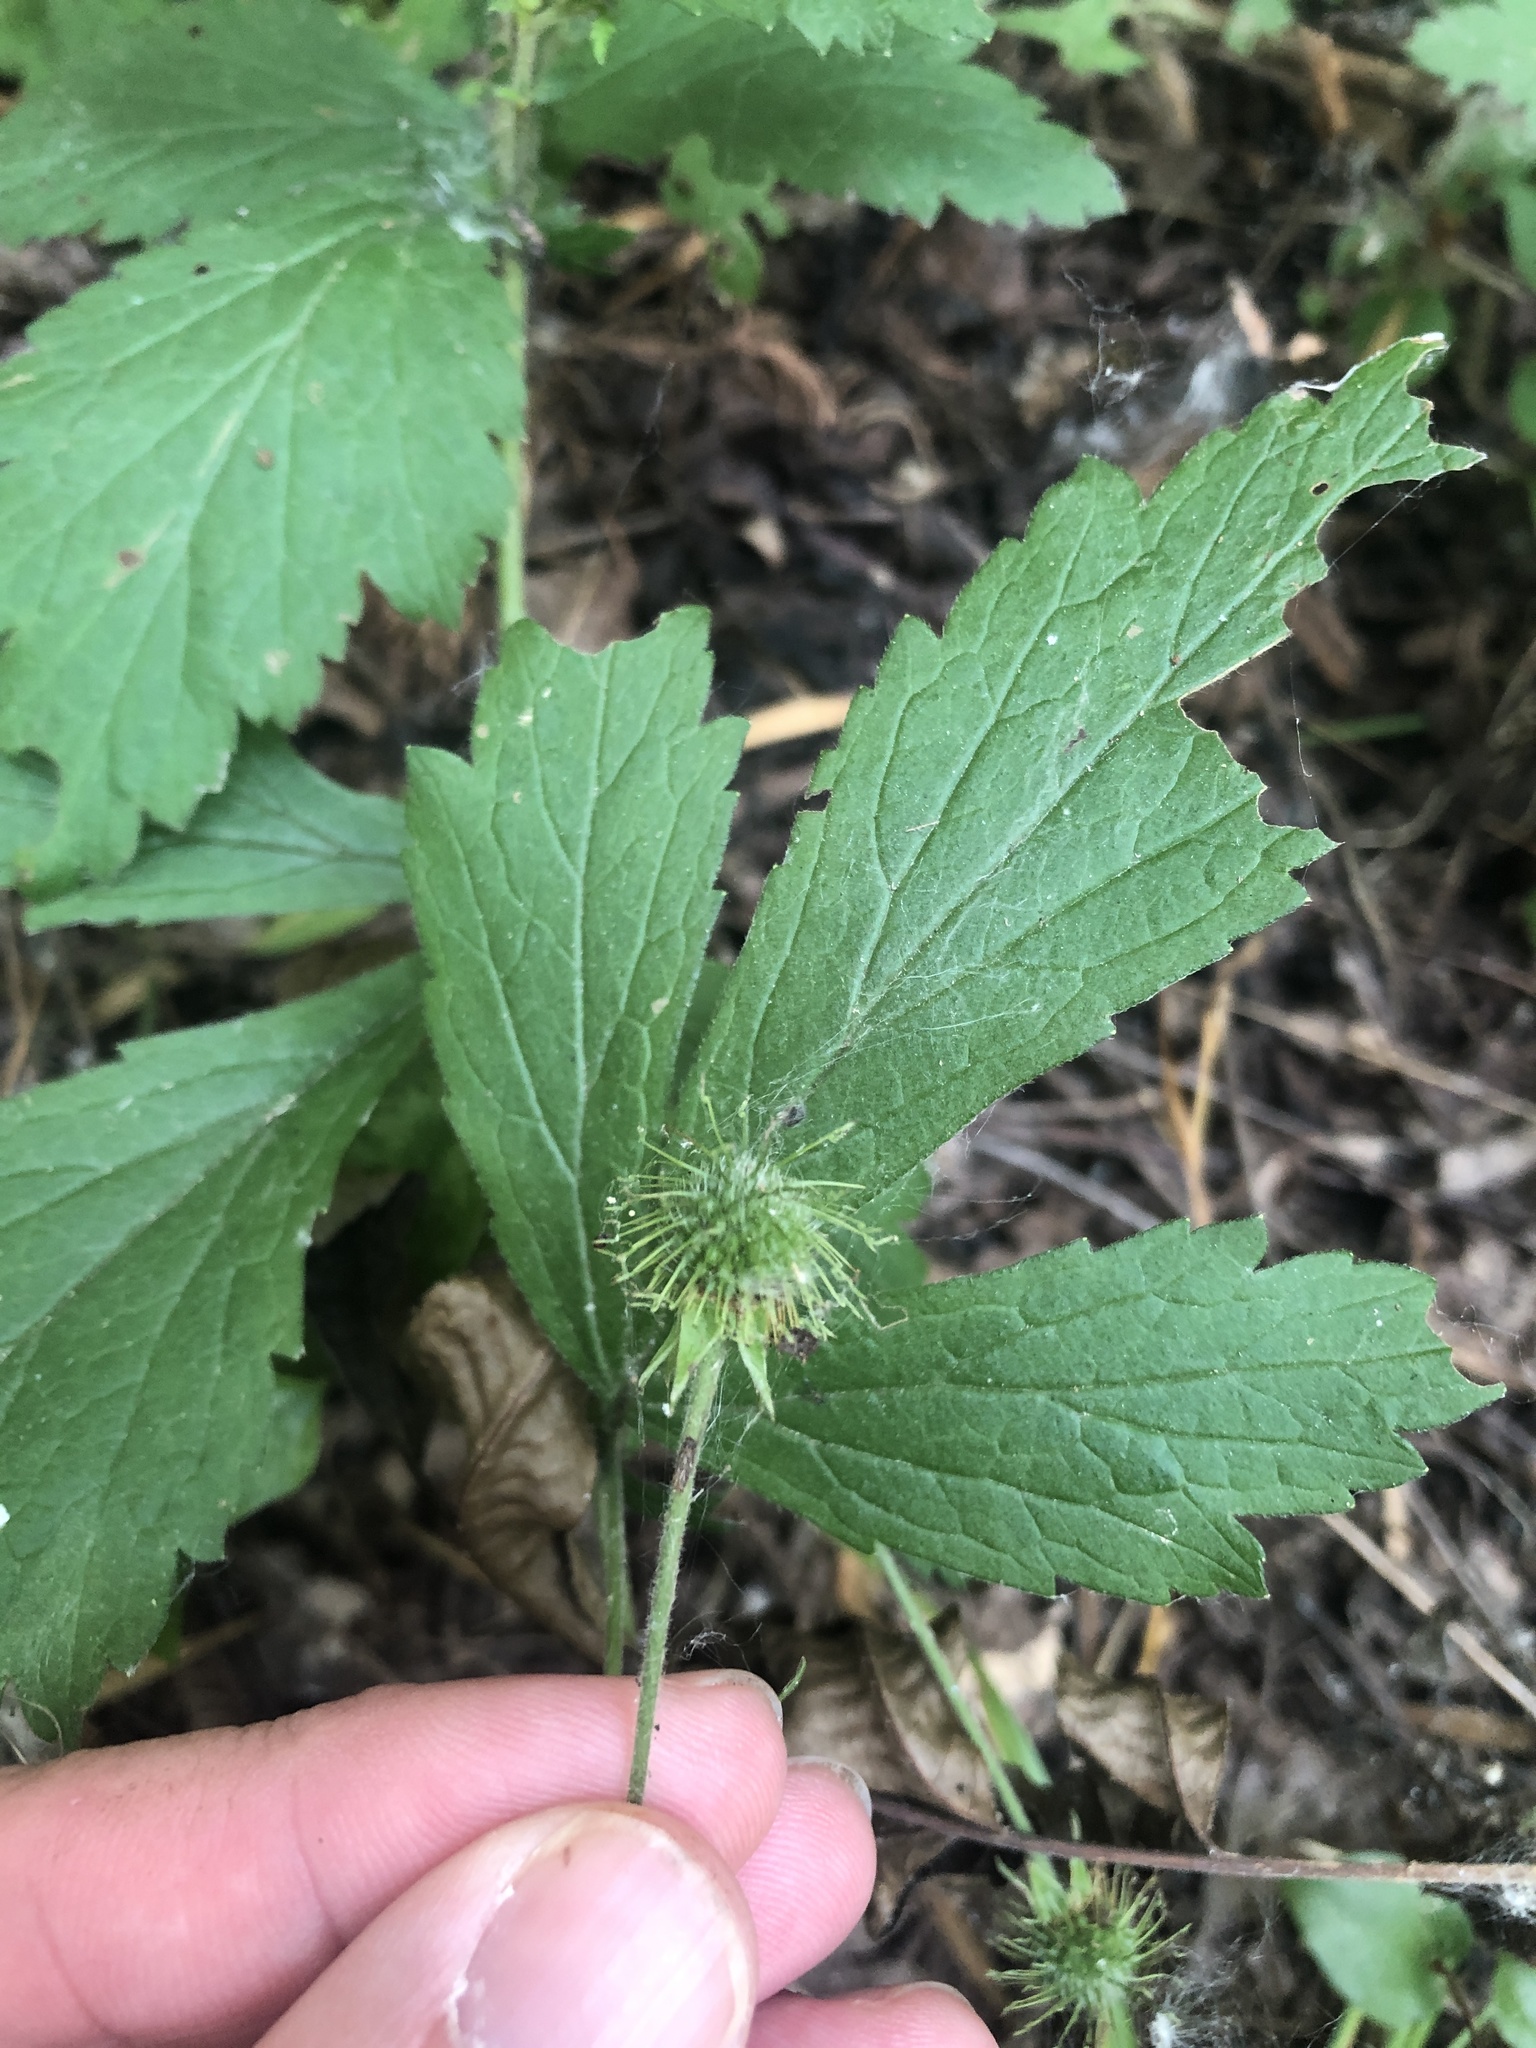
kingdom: Plantae
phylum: Tracheophyta
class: Magnoliopsida
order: Rosales
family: Rosaceae
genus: Geum
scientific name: Geum canadense
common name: White avens
